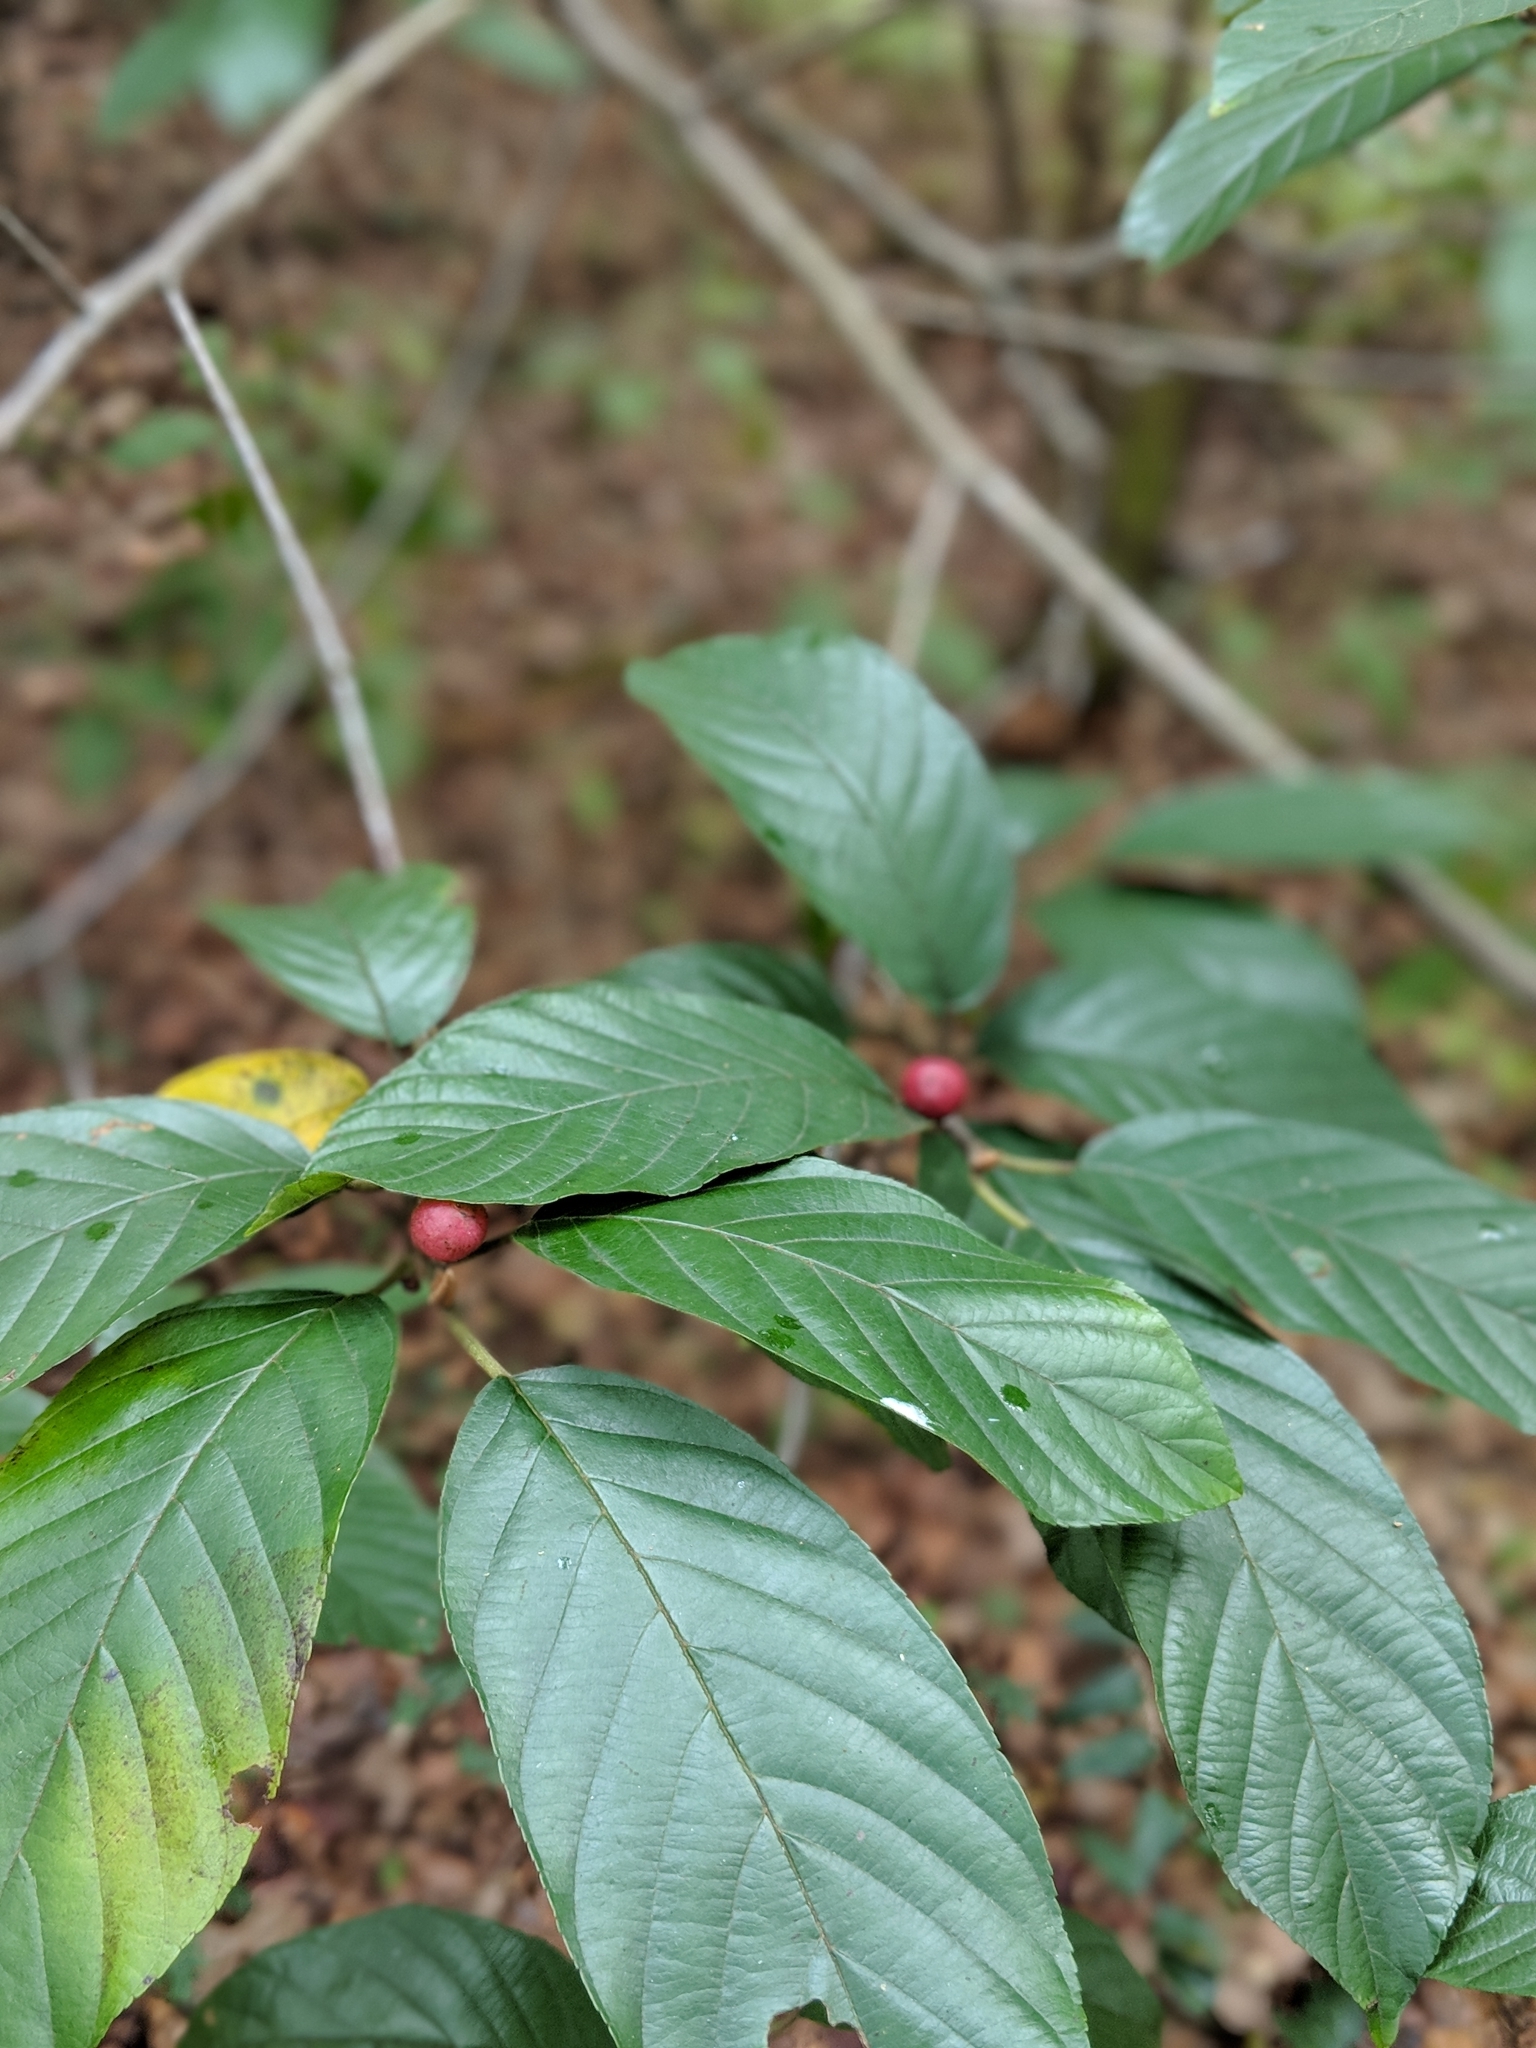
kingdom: Plantae
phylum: Tracheophyta
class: Magnoliopsida
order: Rosales
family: Rhamnaceae
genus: Frangula
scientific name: Frangula caroliniana
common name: Carolina buckthorn
